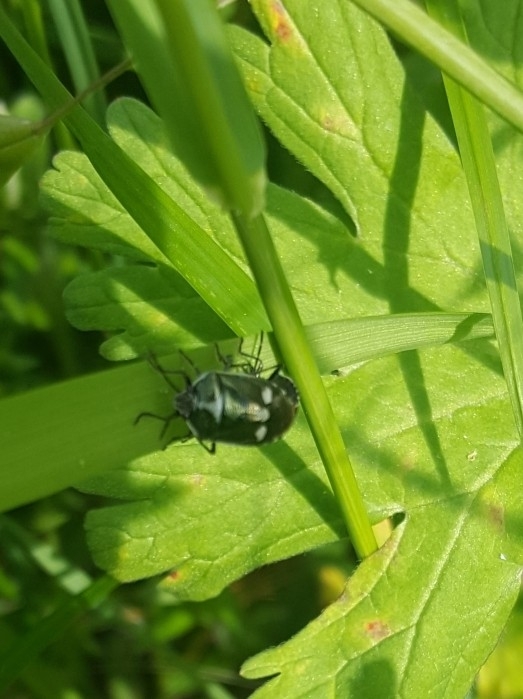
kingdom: Animalia
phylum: Arthropoda
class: Insecta
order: Hemiptera
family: Pentatomidae
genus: Eurydema
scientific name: Eurydema oleracea
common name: Cabbage bug
